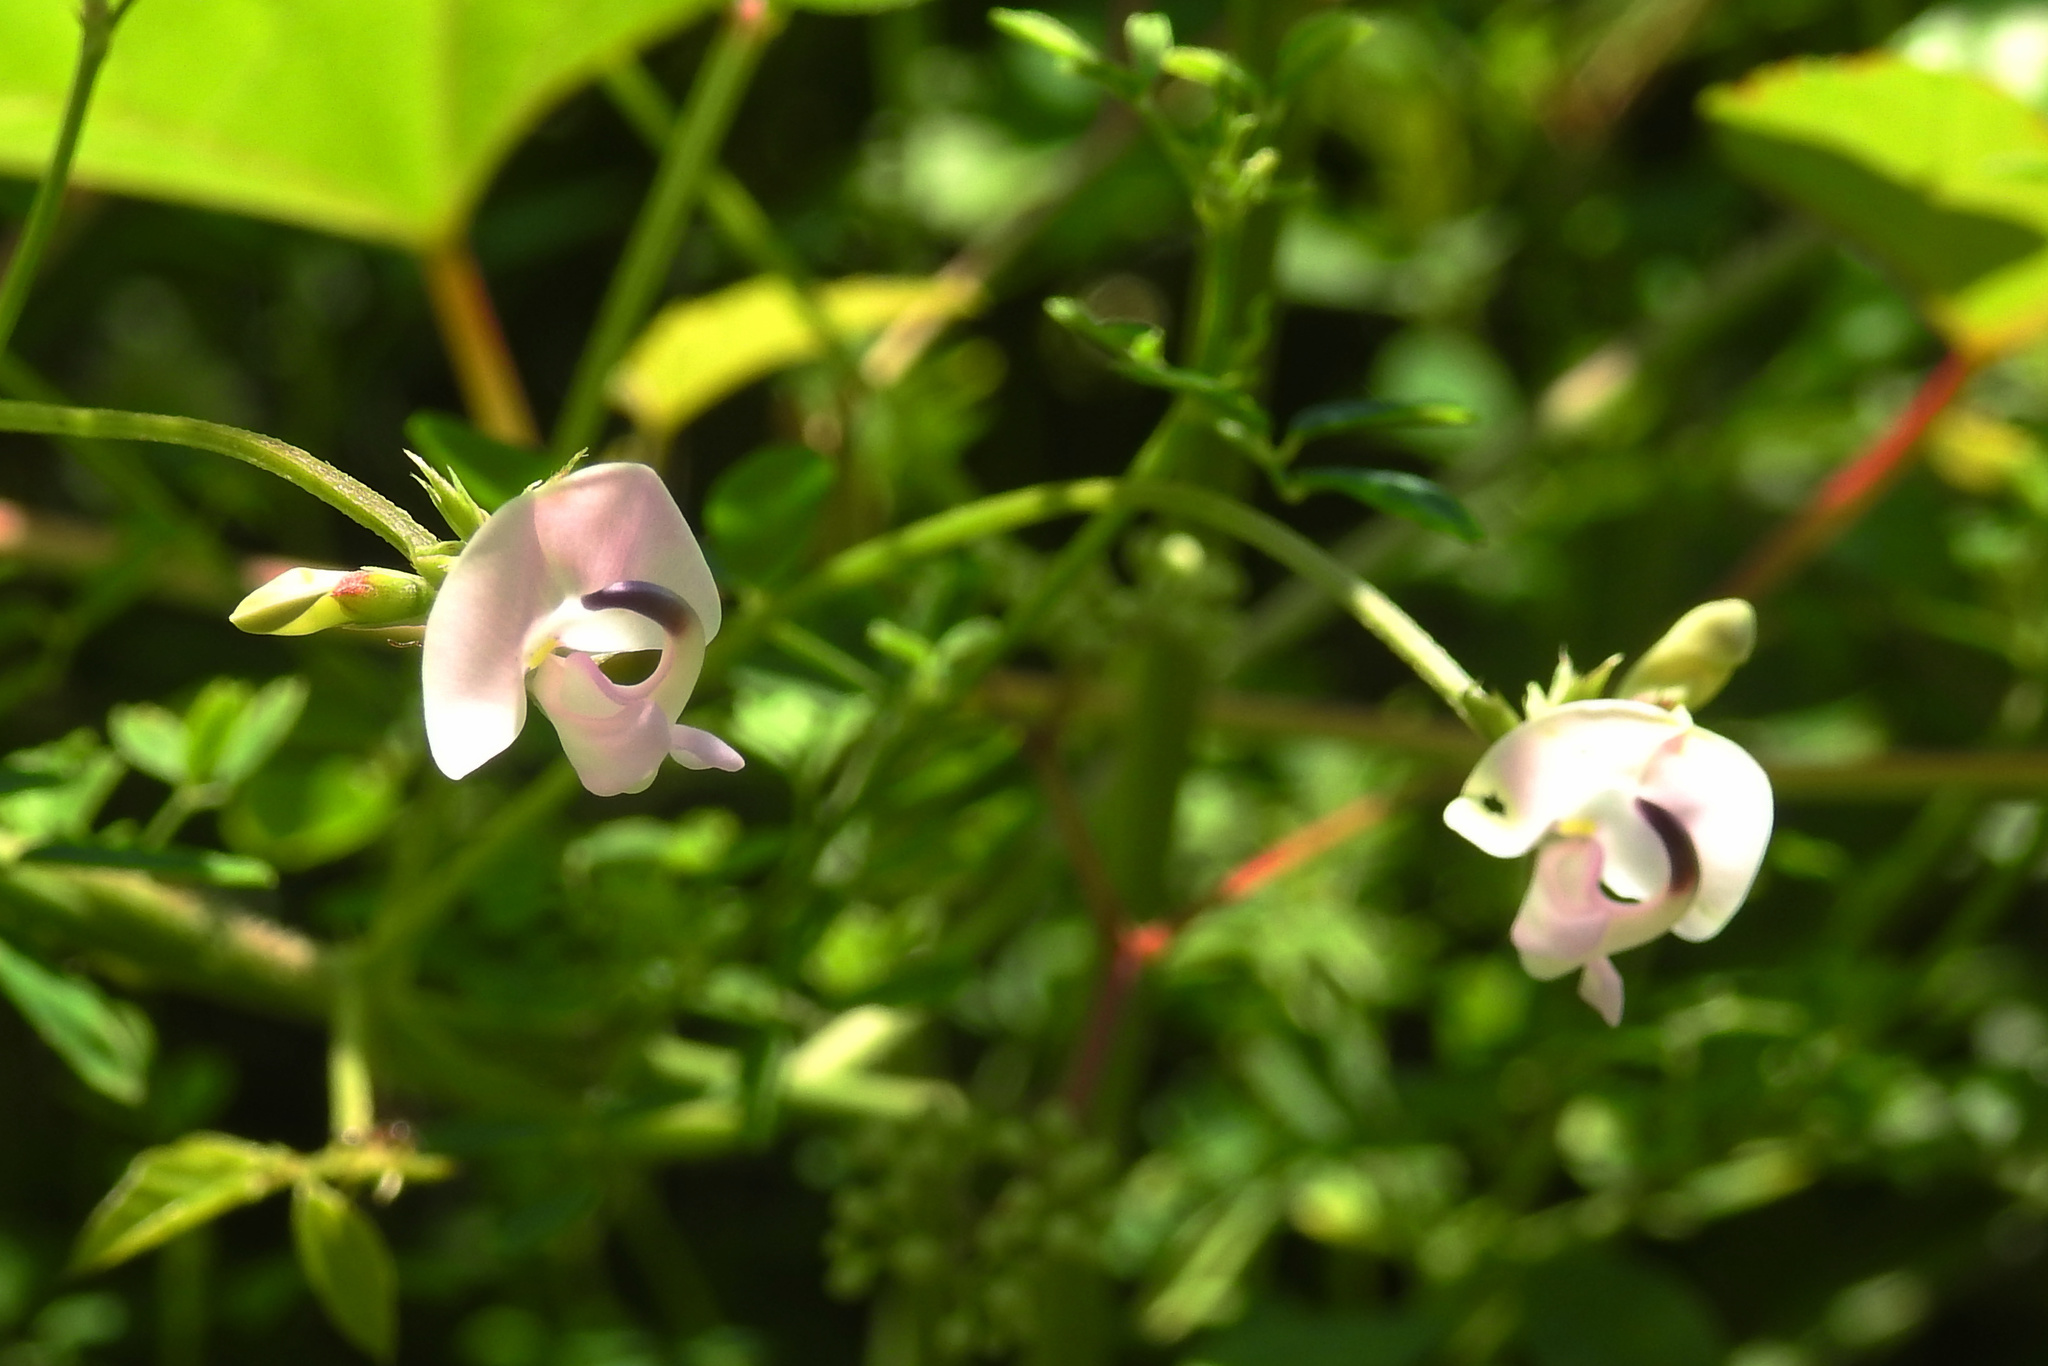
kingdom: Plantae
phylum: Tracheophyta
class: Magnoliopsida
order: Fabales
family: Fabaceae
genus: Strophostyles
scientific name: Strophostyles helvola
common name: Trailing wild bean
